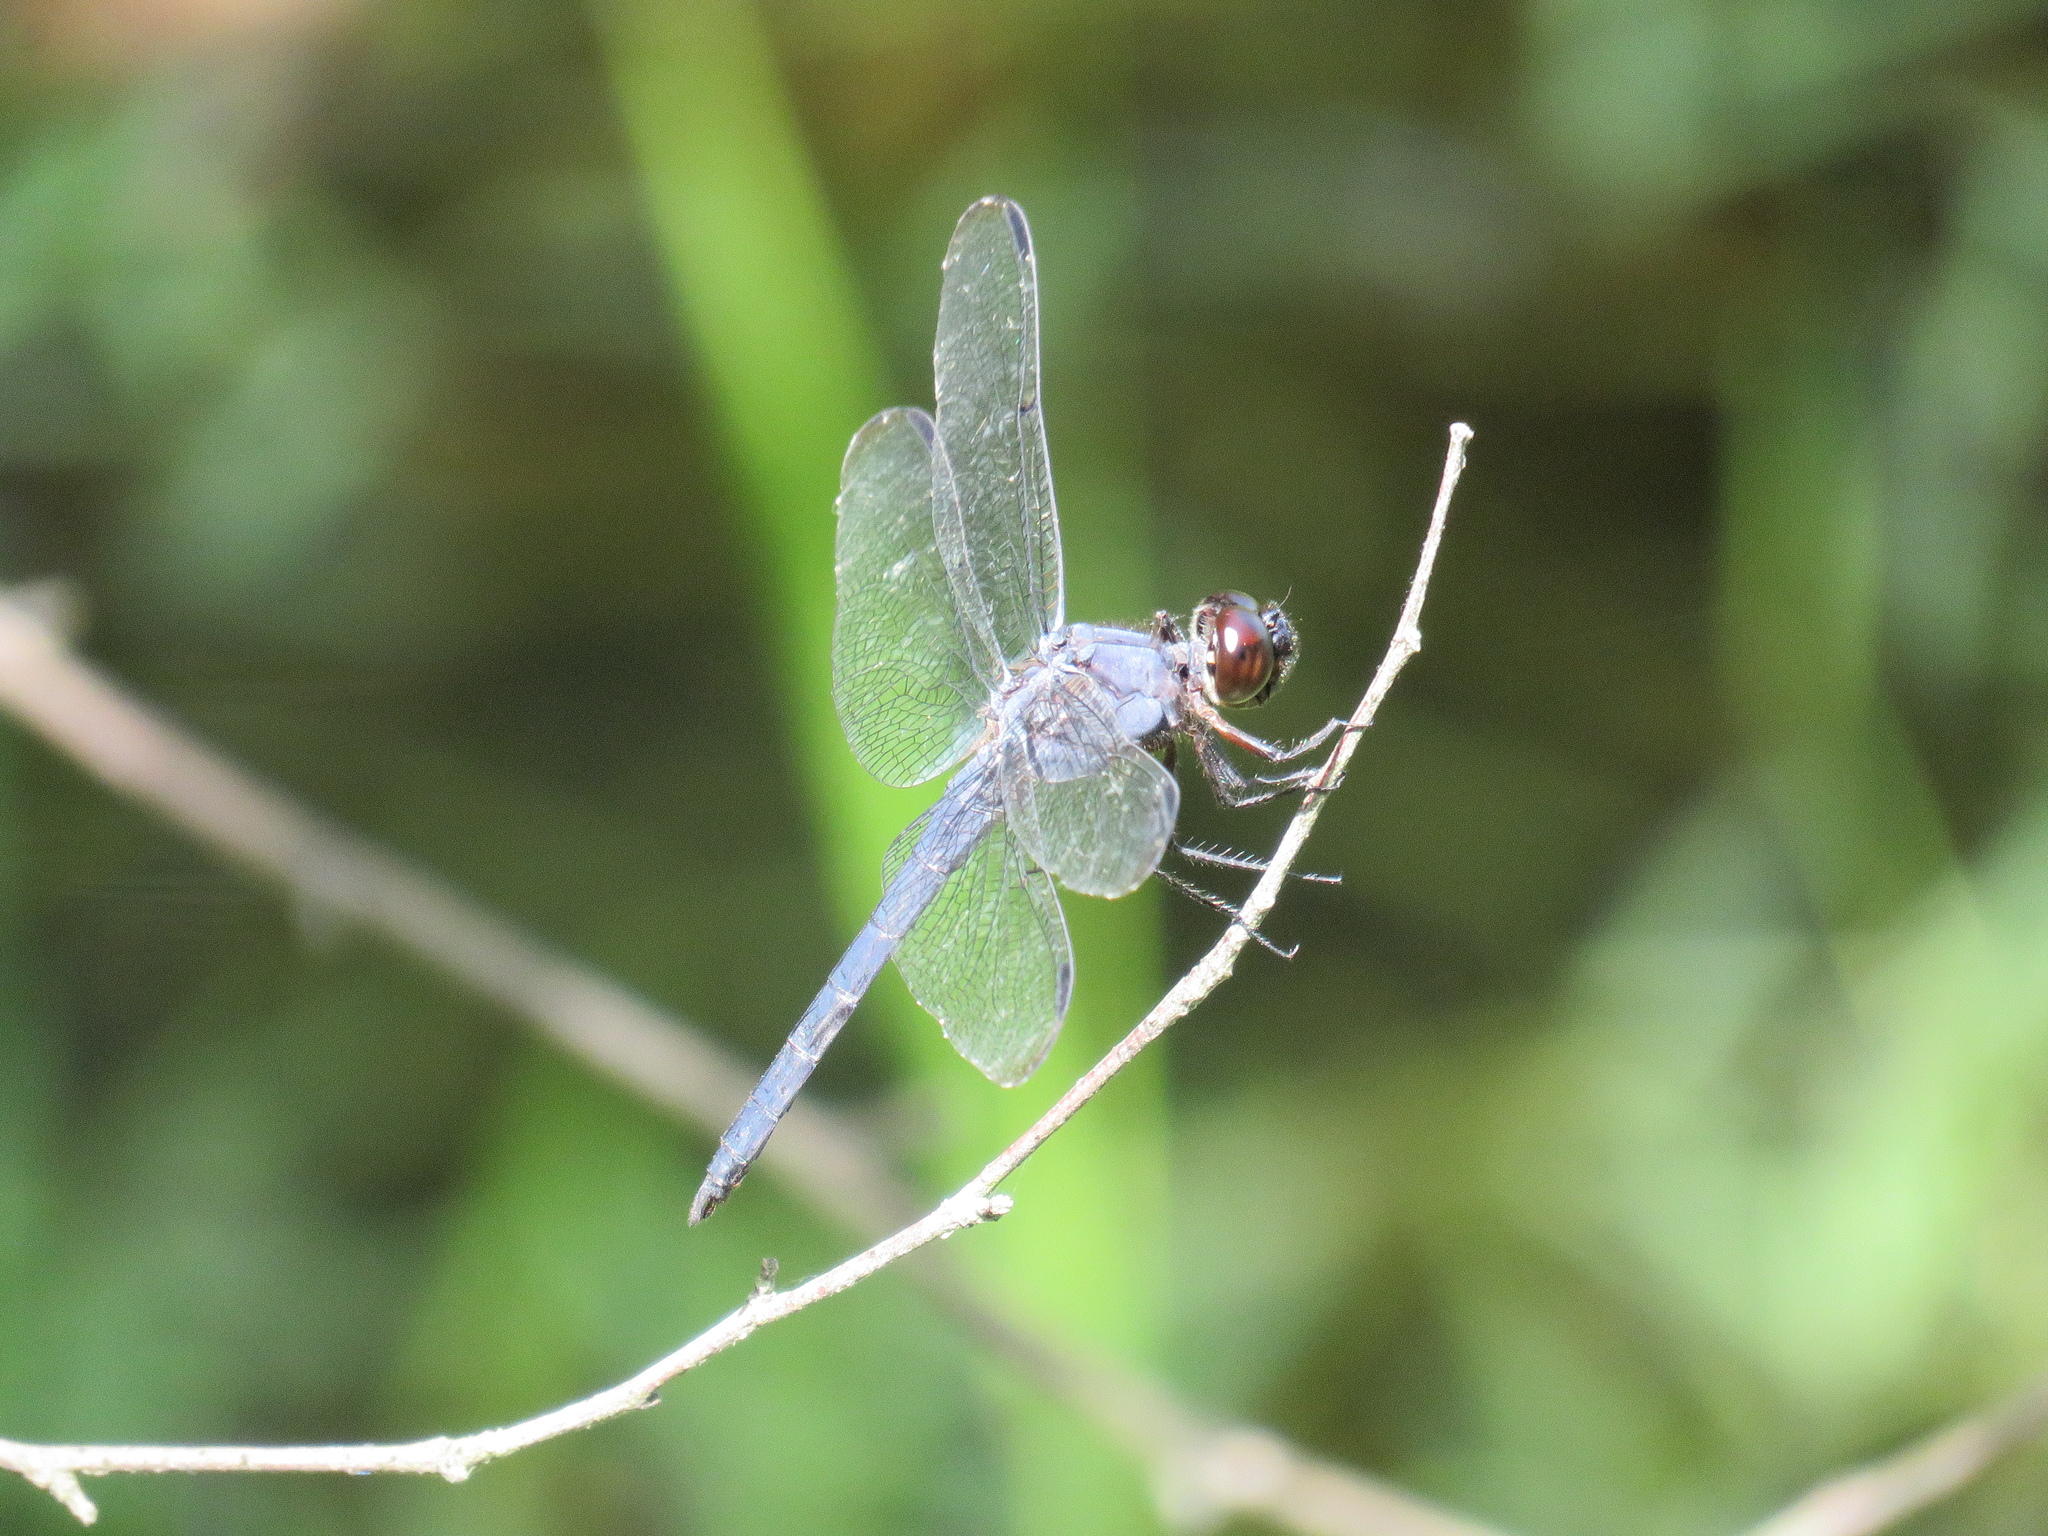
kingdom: Animalia
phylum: Arthropoda
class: Insecta
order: Odonata
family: Libellulidae
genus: Libellula
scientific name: Libellula incesta
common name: Slaty skimmer
